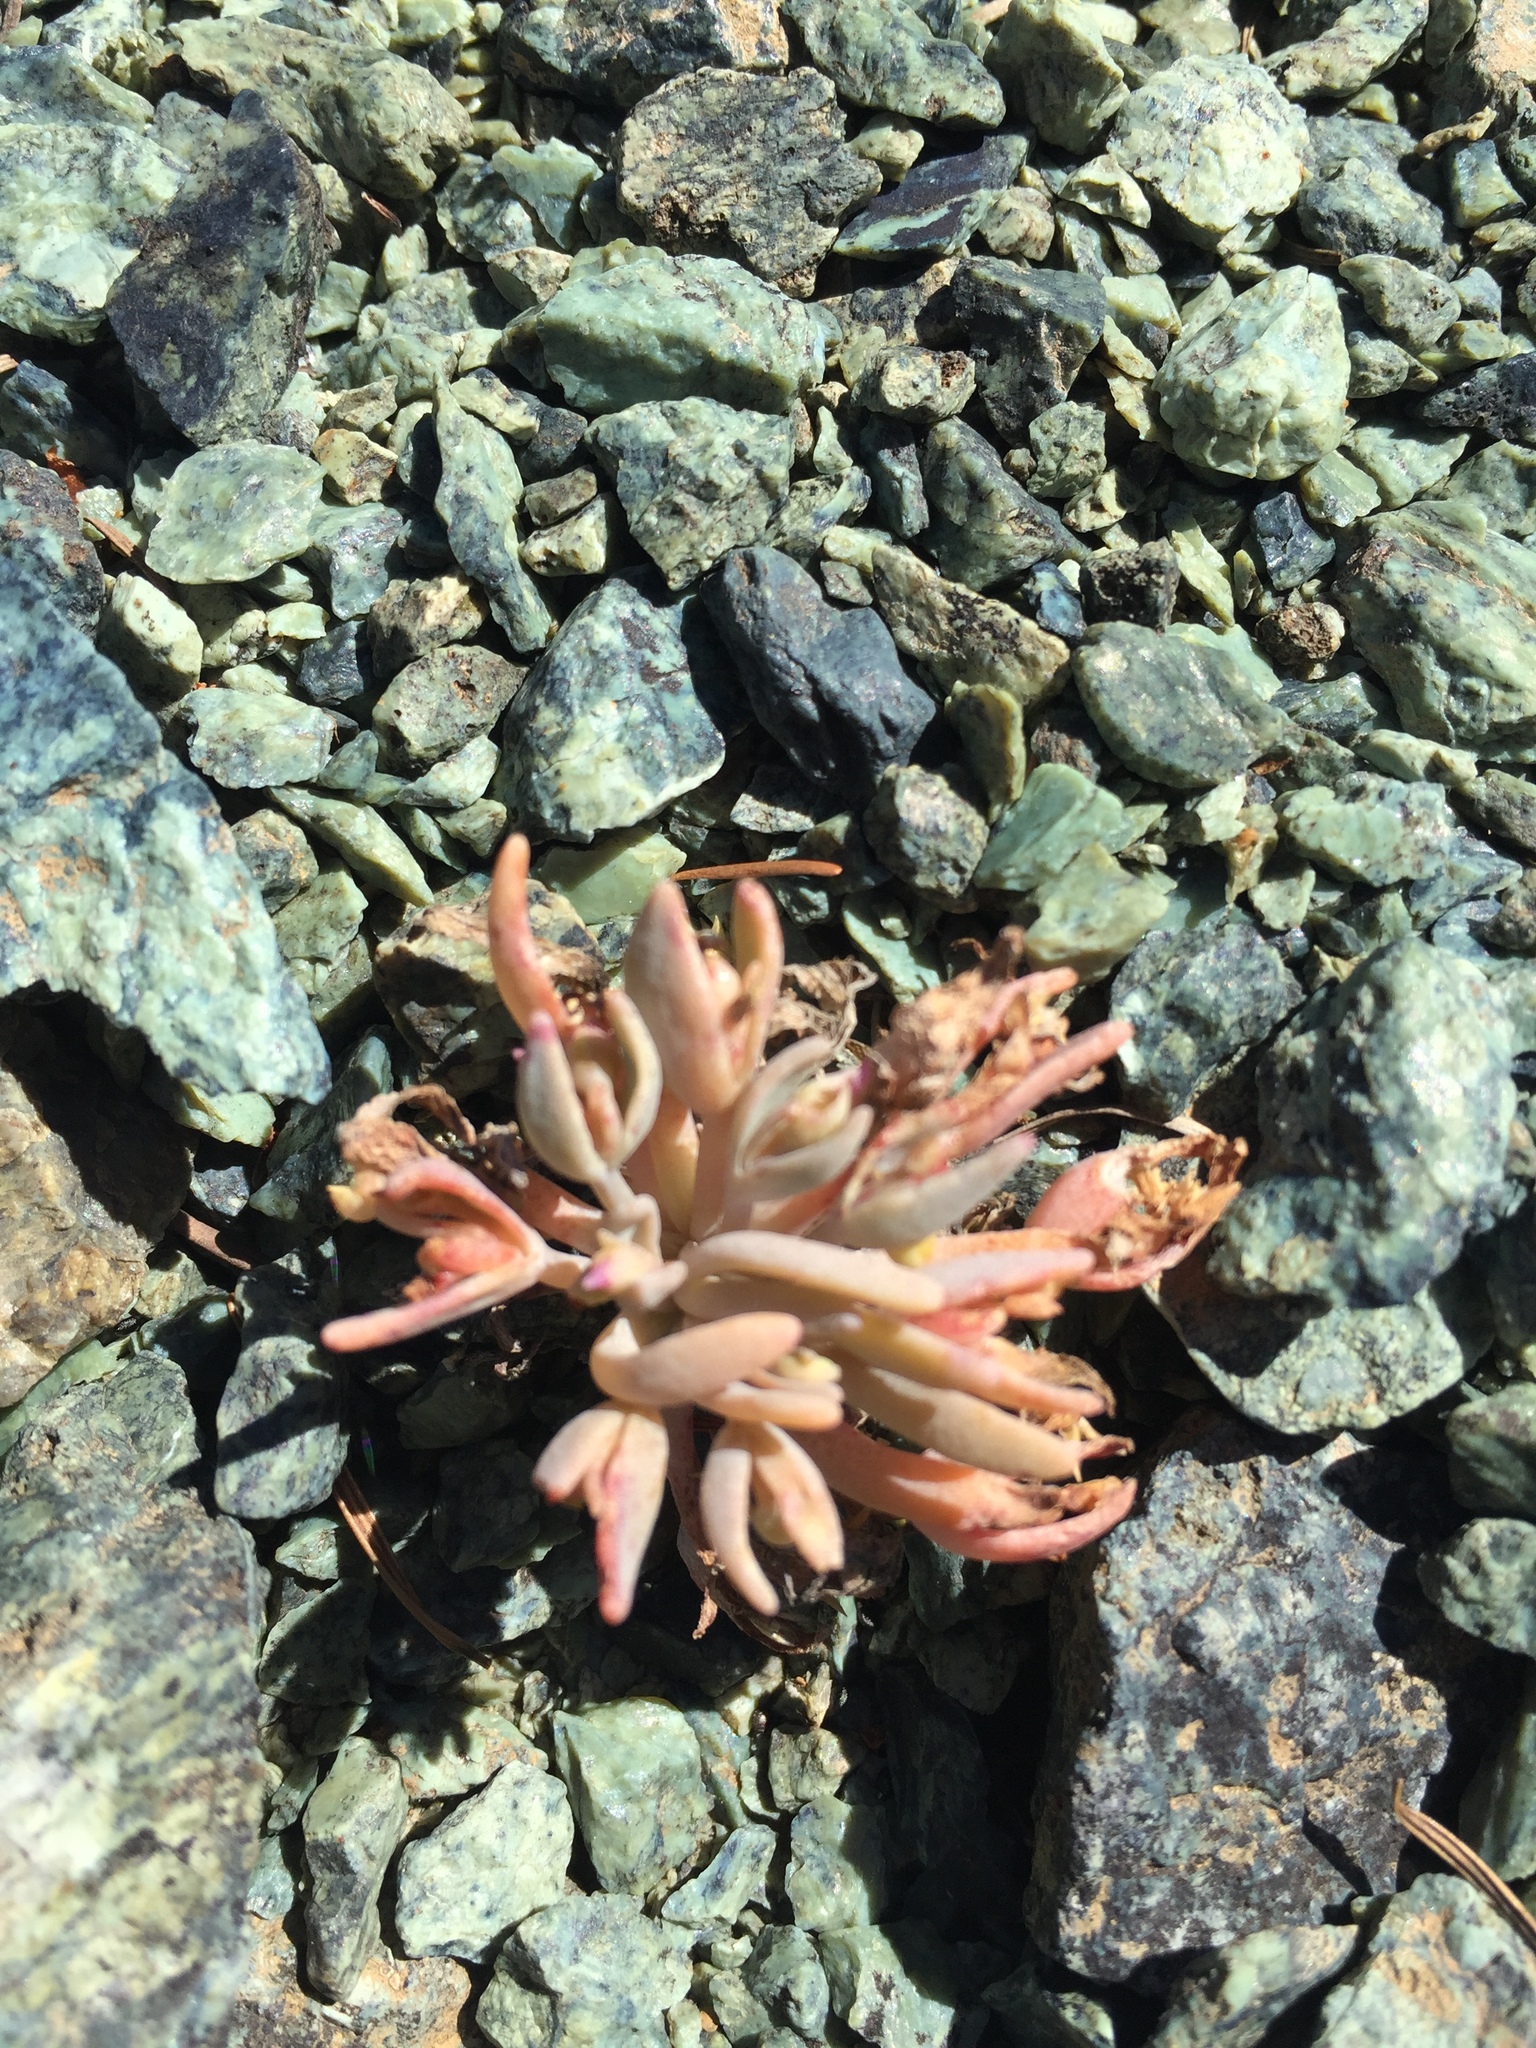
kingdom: Plantae
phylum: Tracheophyta
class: Magnoliopsida
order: Caryophyllales
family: Montiaceae
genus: Claytonia
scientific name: Claytonia exigua
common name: Pale spring beauty
